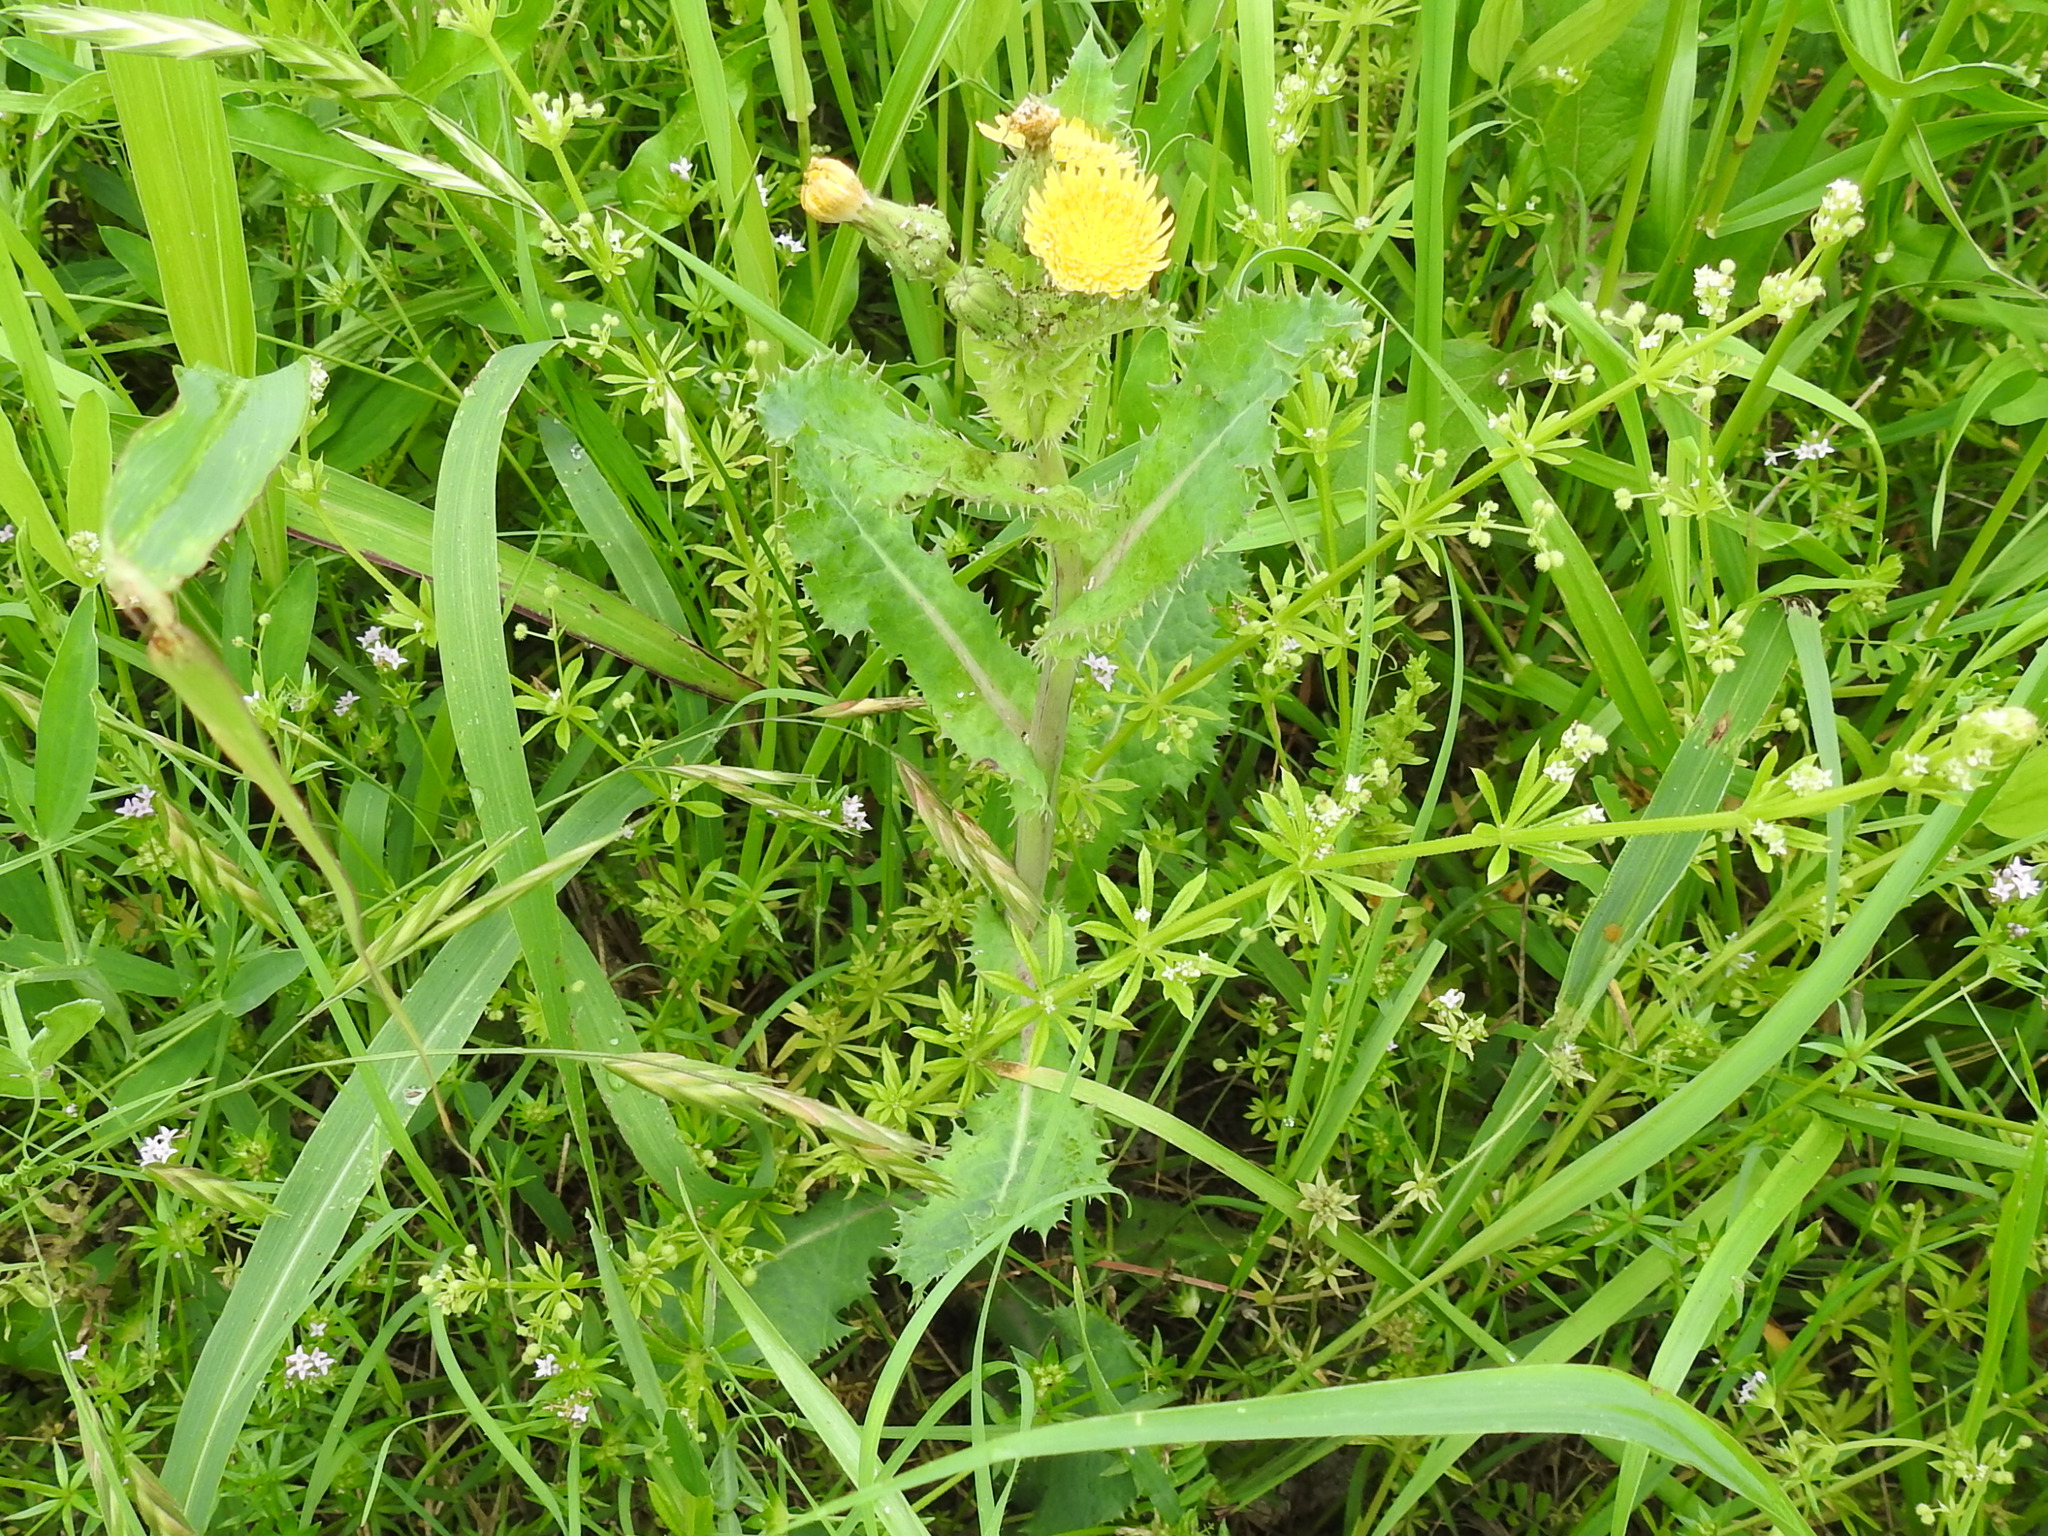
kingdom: Plantae
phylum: Tracheophyta
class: Magnoliopsida
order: Asterales
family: Asteraceae
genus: Sonchus
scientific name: Sonchus oleraceus
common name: Common sowthistle
